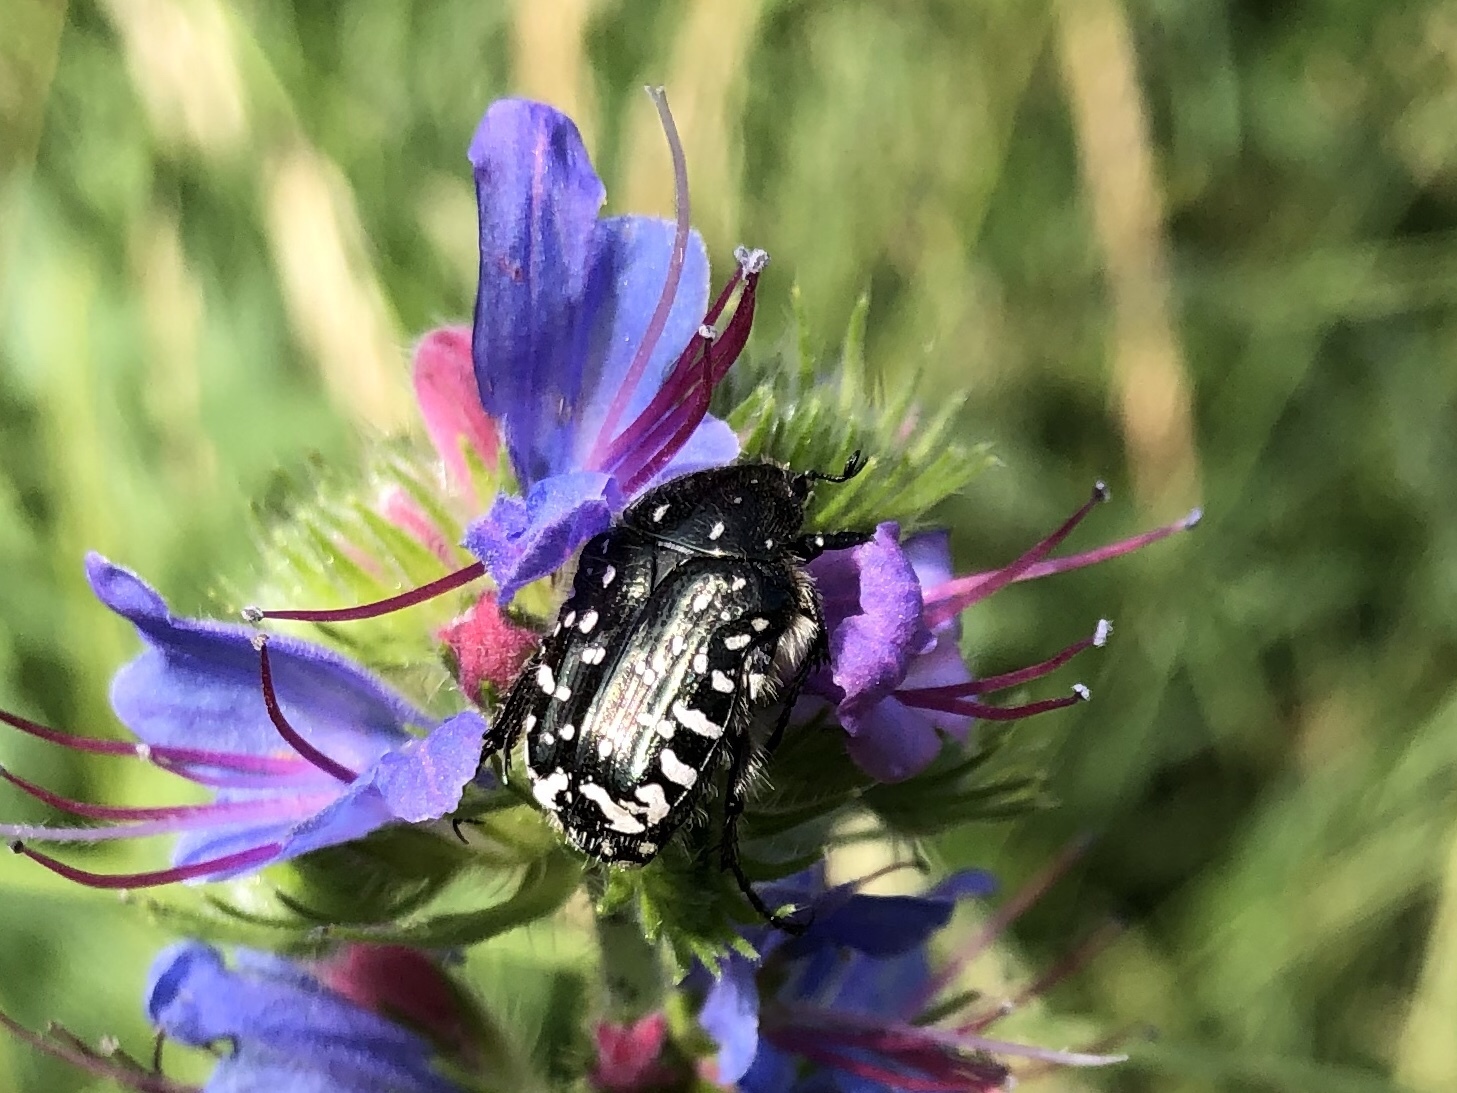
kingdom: Animalia
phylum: Arthropoda
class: Insecta
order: Coleoptera
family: Scarabaeidae
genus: Oxythyrea
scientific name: Oxythyrea funesta
